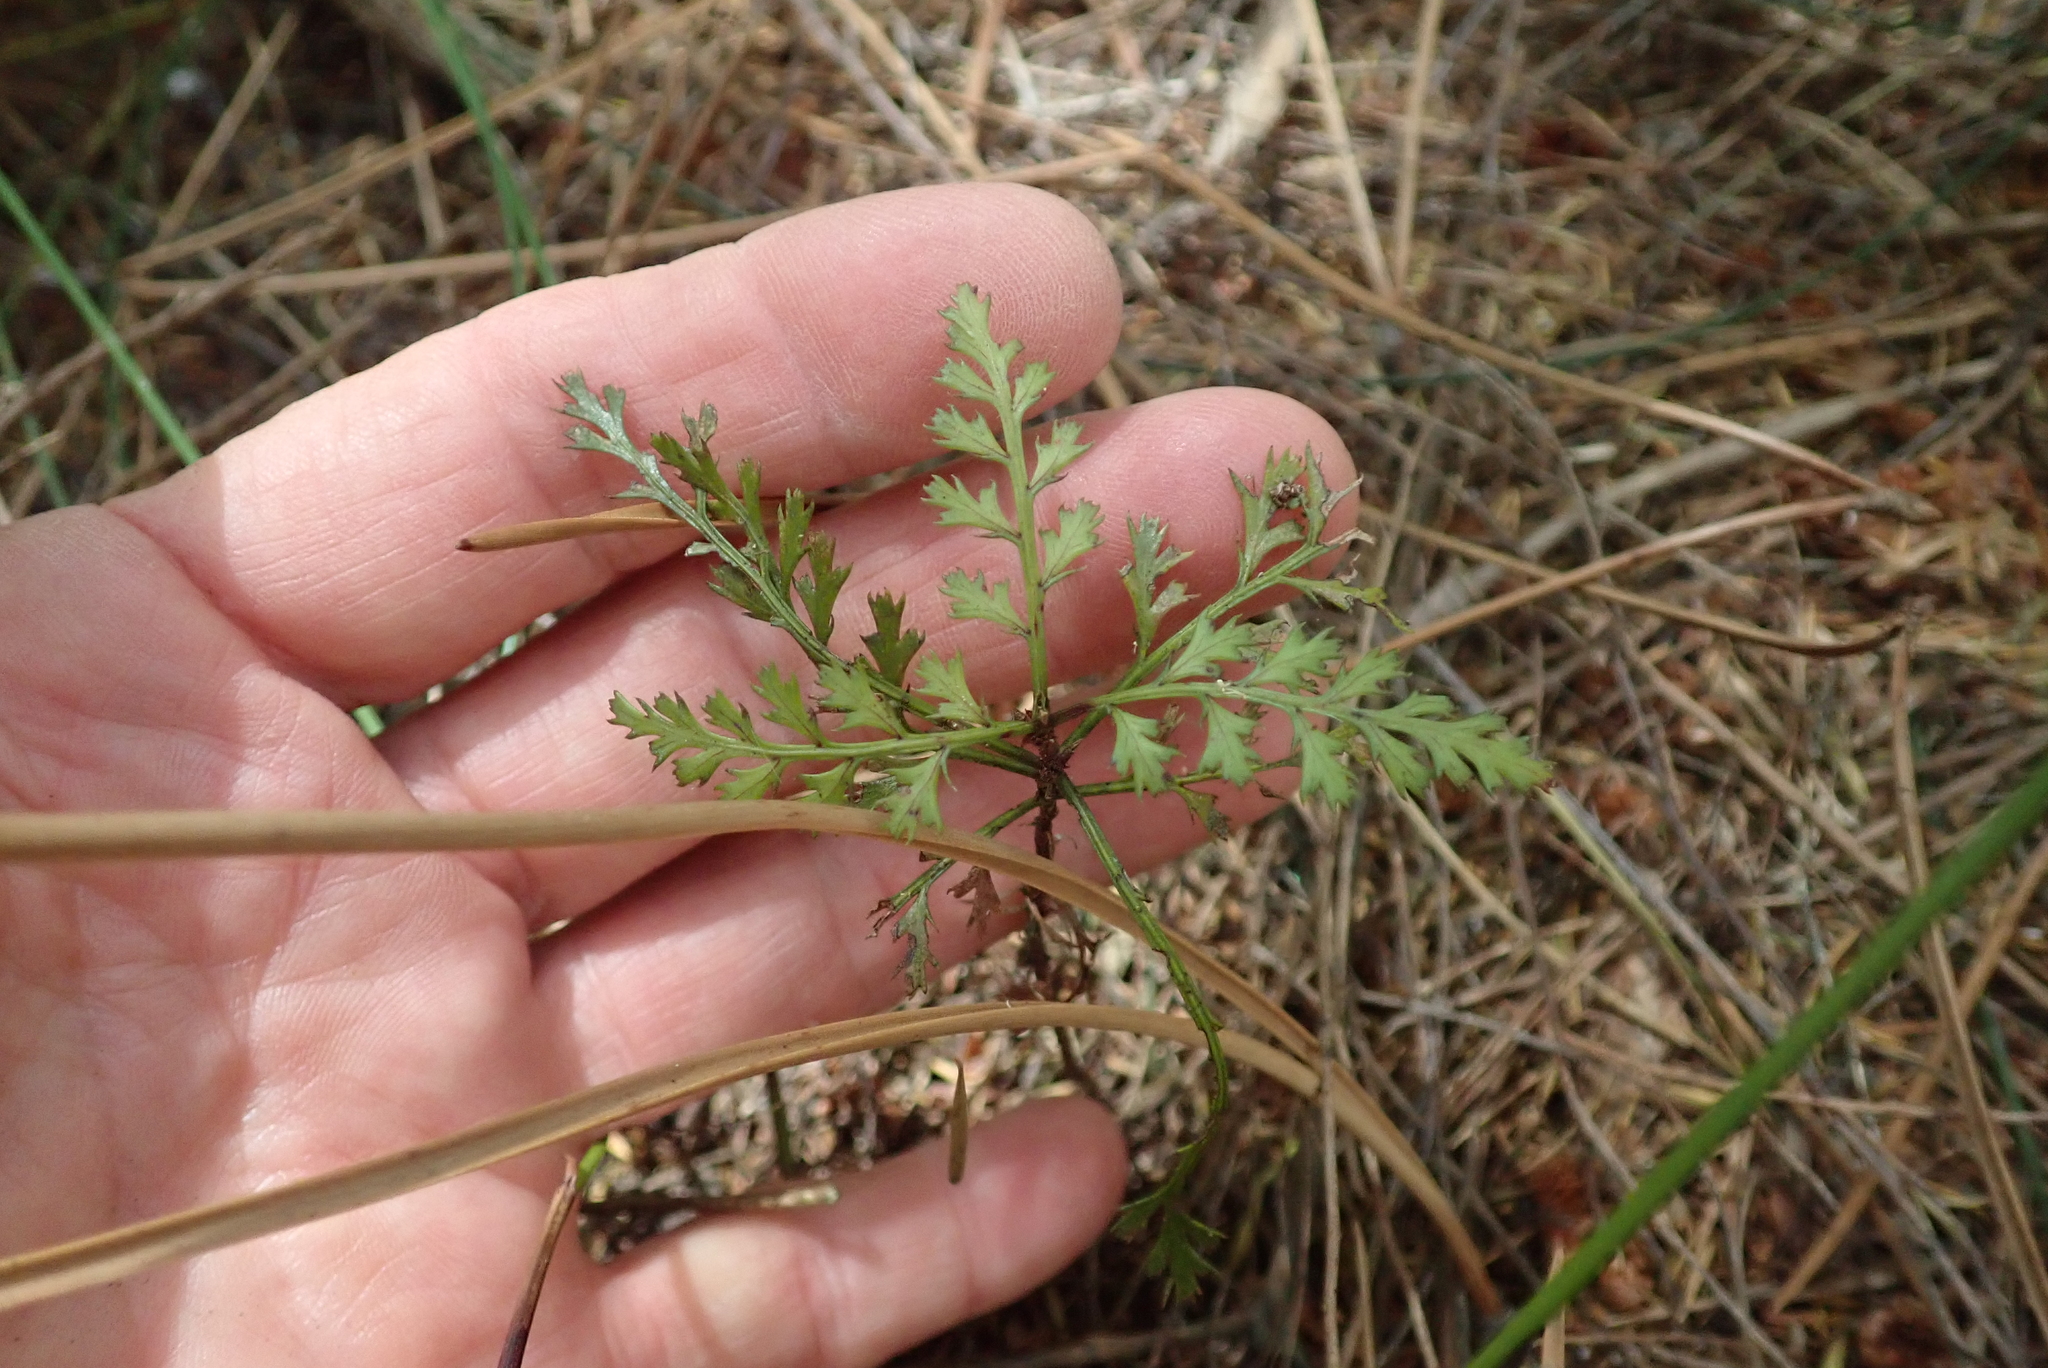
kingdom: Plantae
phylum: Tracheophyta
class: Pinopsida
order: Pinales
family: Phyllocladaceae
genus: Phyllocladus
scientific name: Phyllocladus trichomanoides
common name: Celery pine
